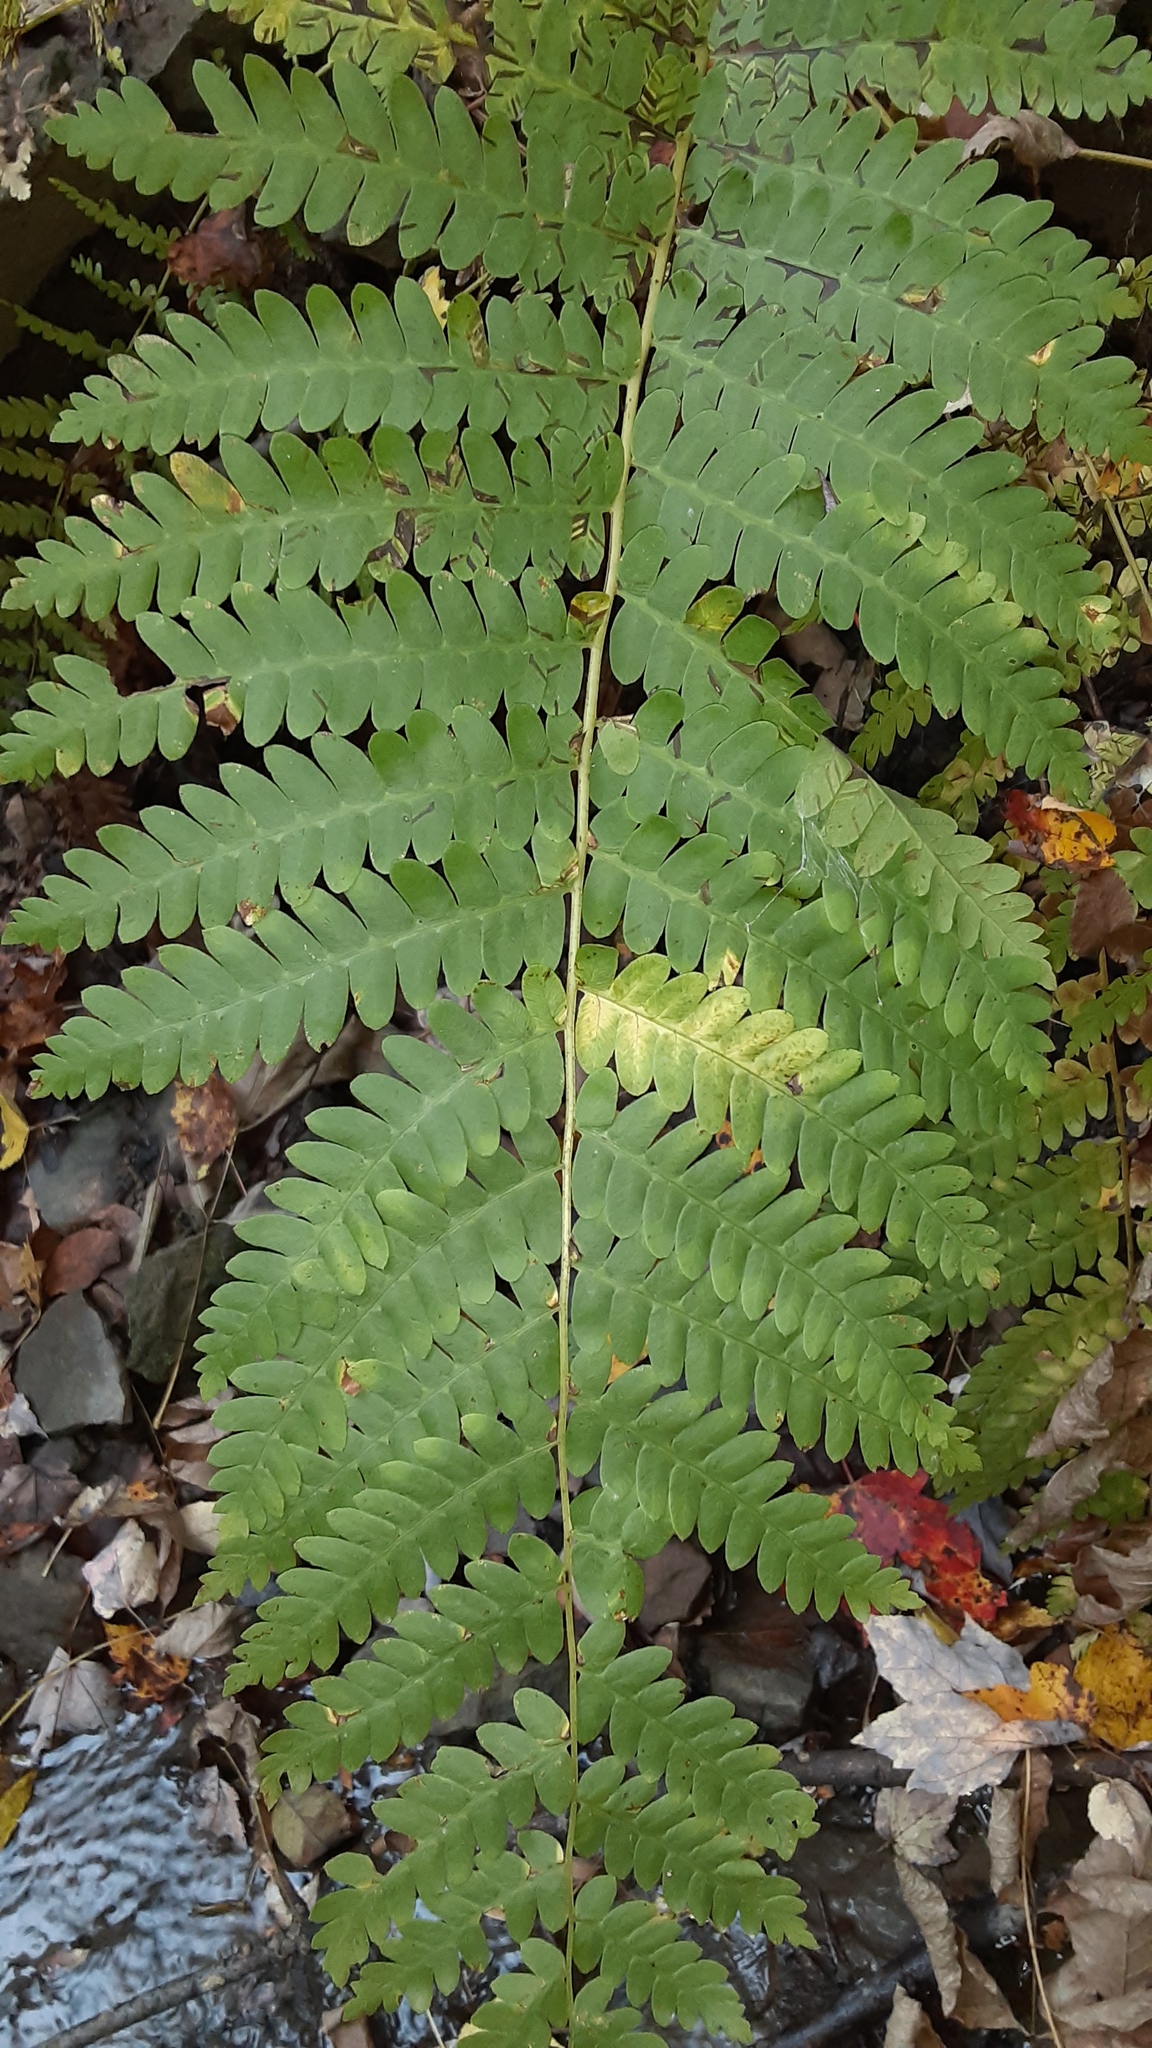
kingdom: Plantae
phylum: Tracheophyta
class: Polypodiopsida
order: Osmundales
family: Osmundaceae
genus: Claytosmunda
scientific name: Claytosmunda claytoniana
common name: Clayton's fern
